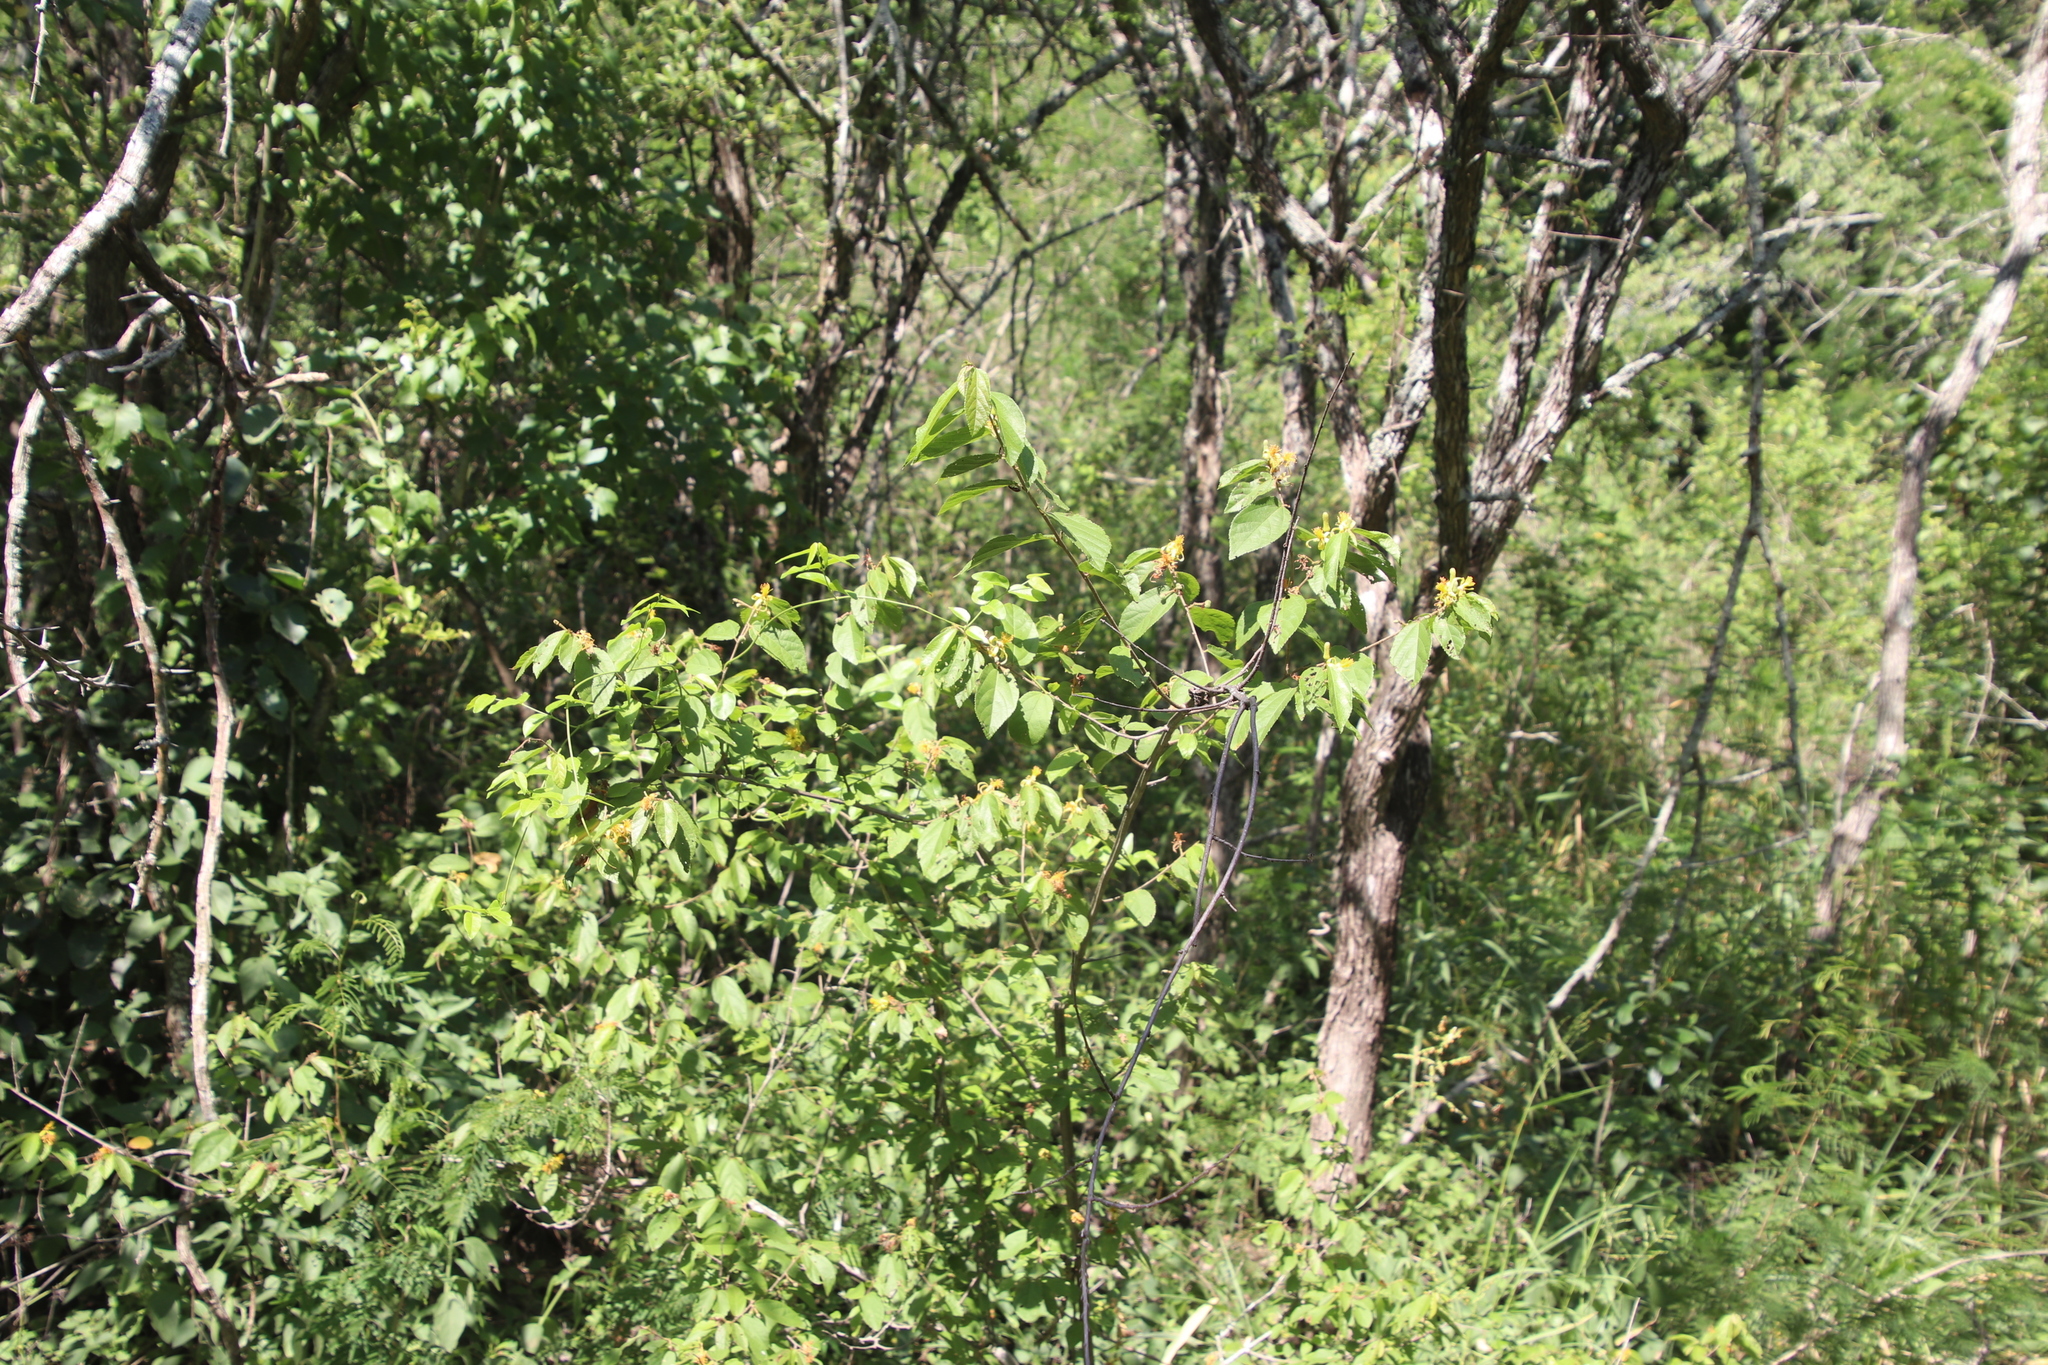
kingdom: Plantae
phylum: Tracheophyta
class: Magnoliopsida
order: Malvales
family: Malvaceae
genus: Grewia
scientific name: Grewia flavescens
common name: Sandpaper raisin
